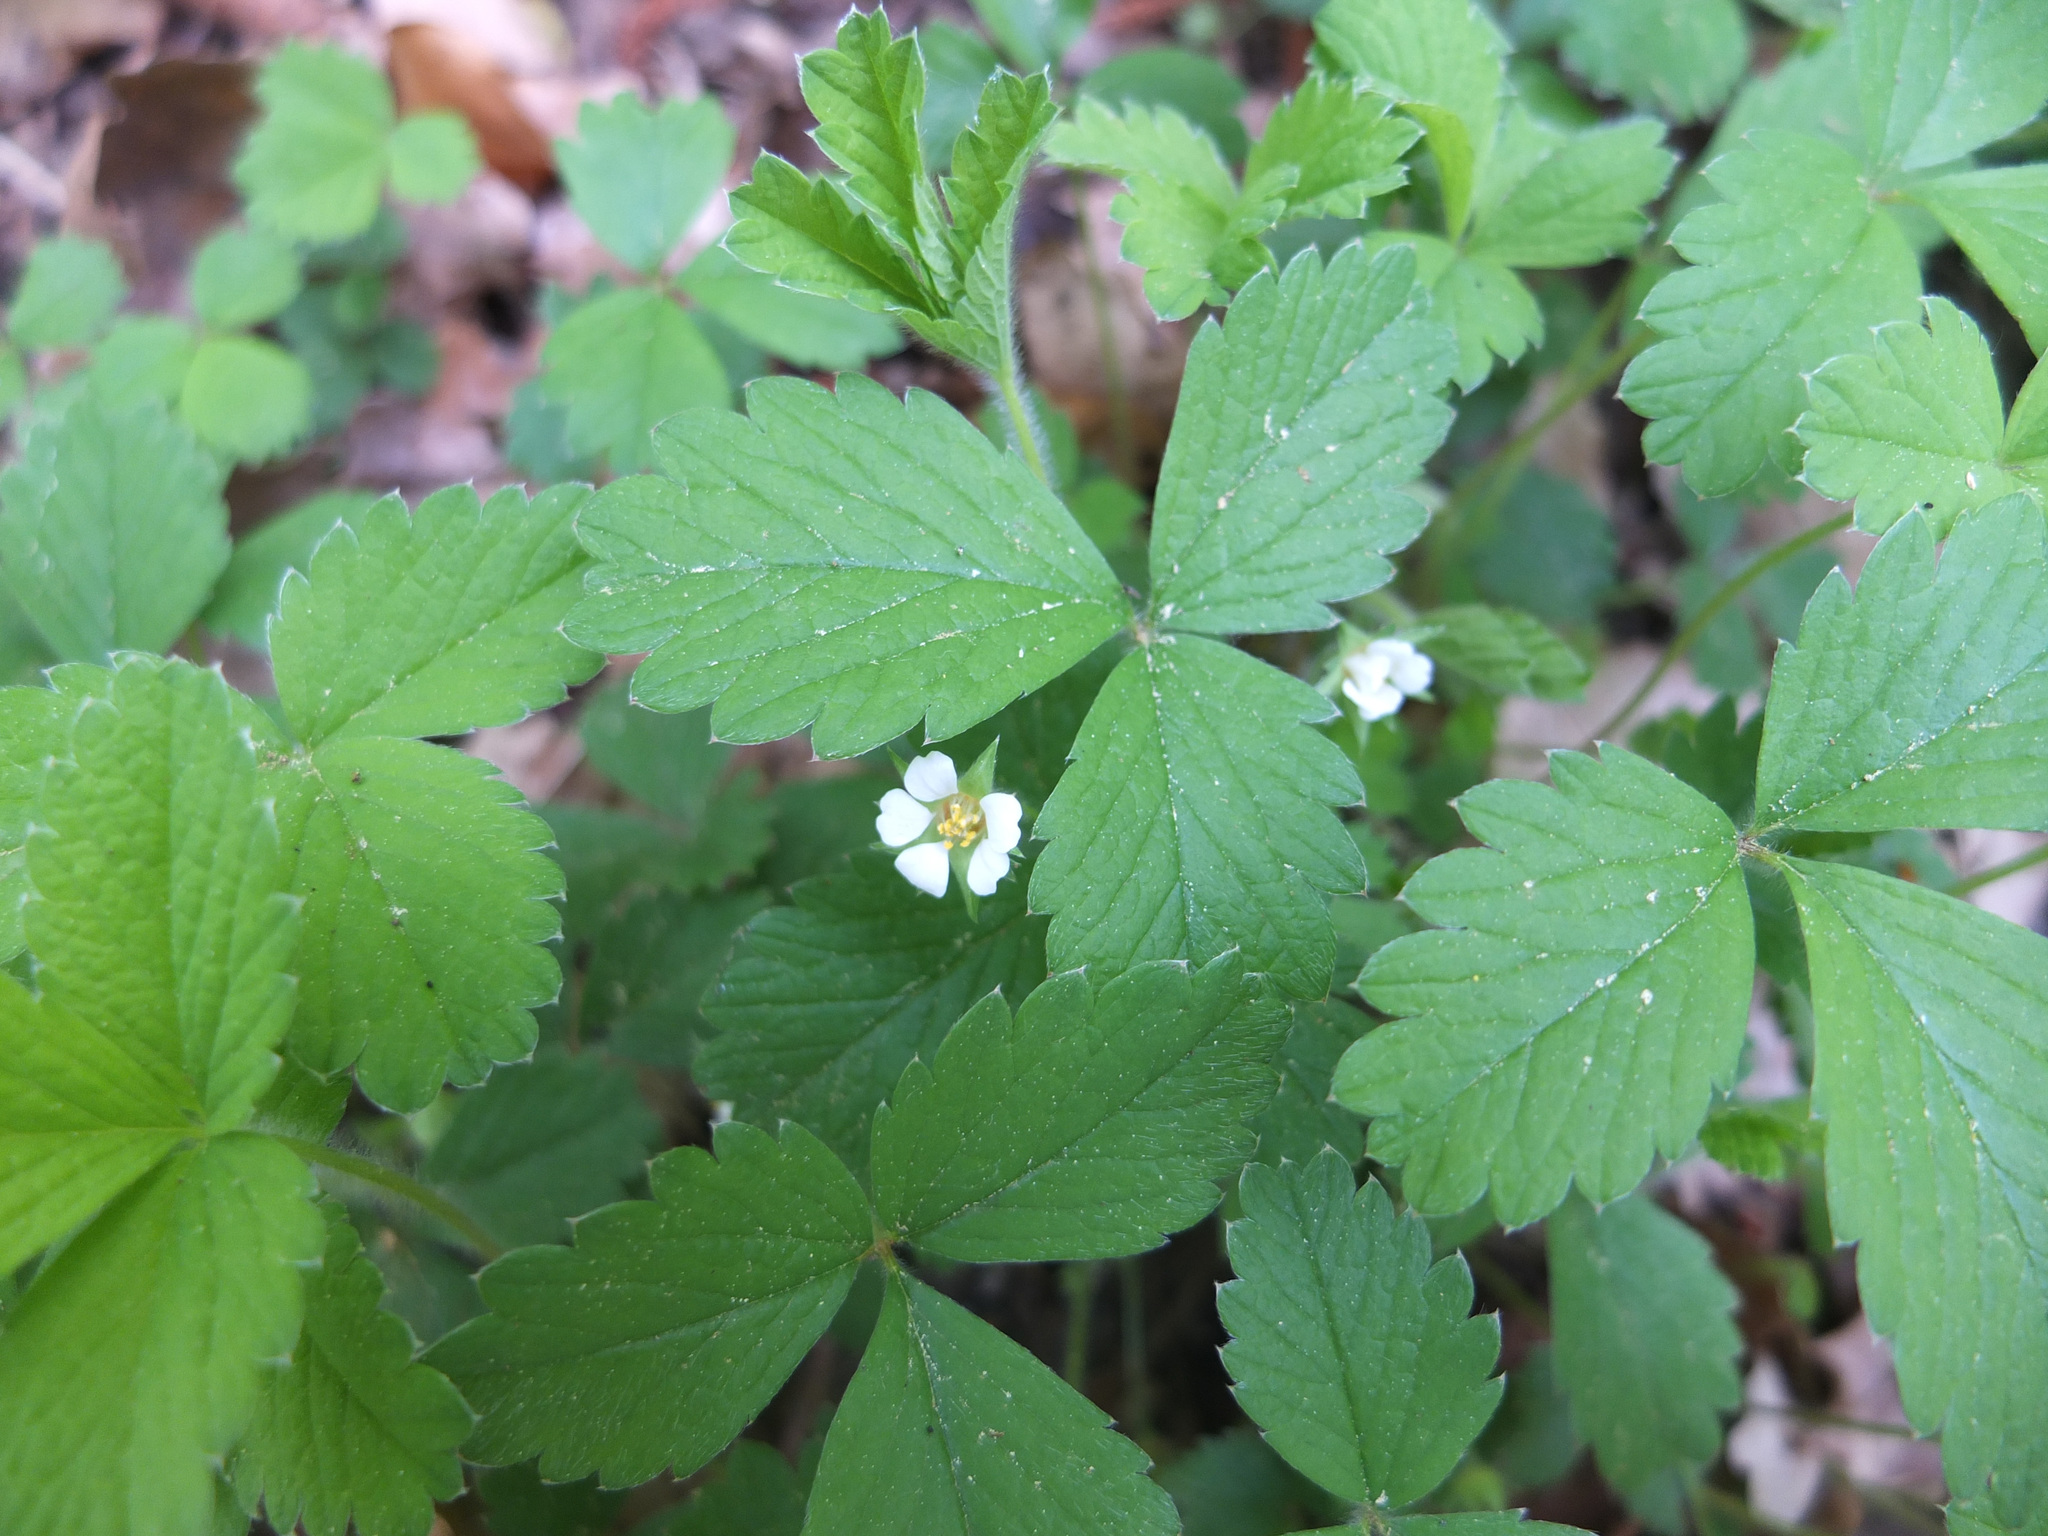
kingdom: Plantae
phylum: Tracheophyta
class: Magnoliopsida
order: Rosales
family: Rosaceae
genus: Potentilla
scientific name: Potentilla sterilis
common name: Barren strawberry
